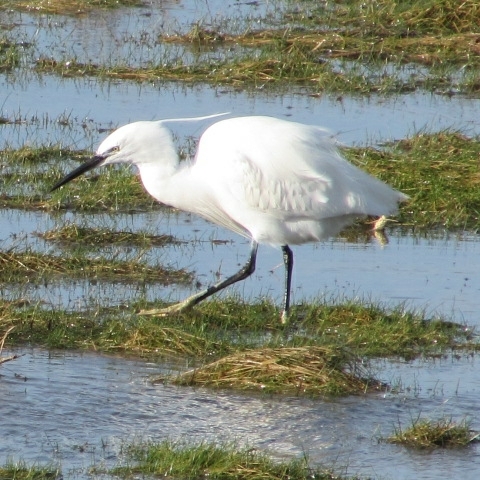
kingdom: Animalia
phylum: Chordata
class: Aves
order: Pelecaniformes
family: Ardeidae
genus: Egretta
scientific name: Egretta garzetta
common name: Little egret
